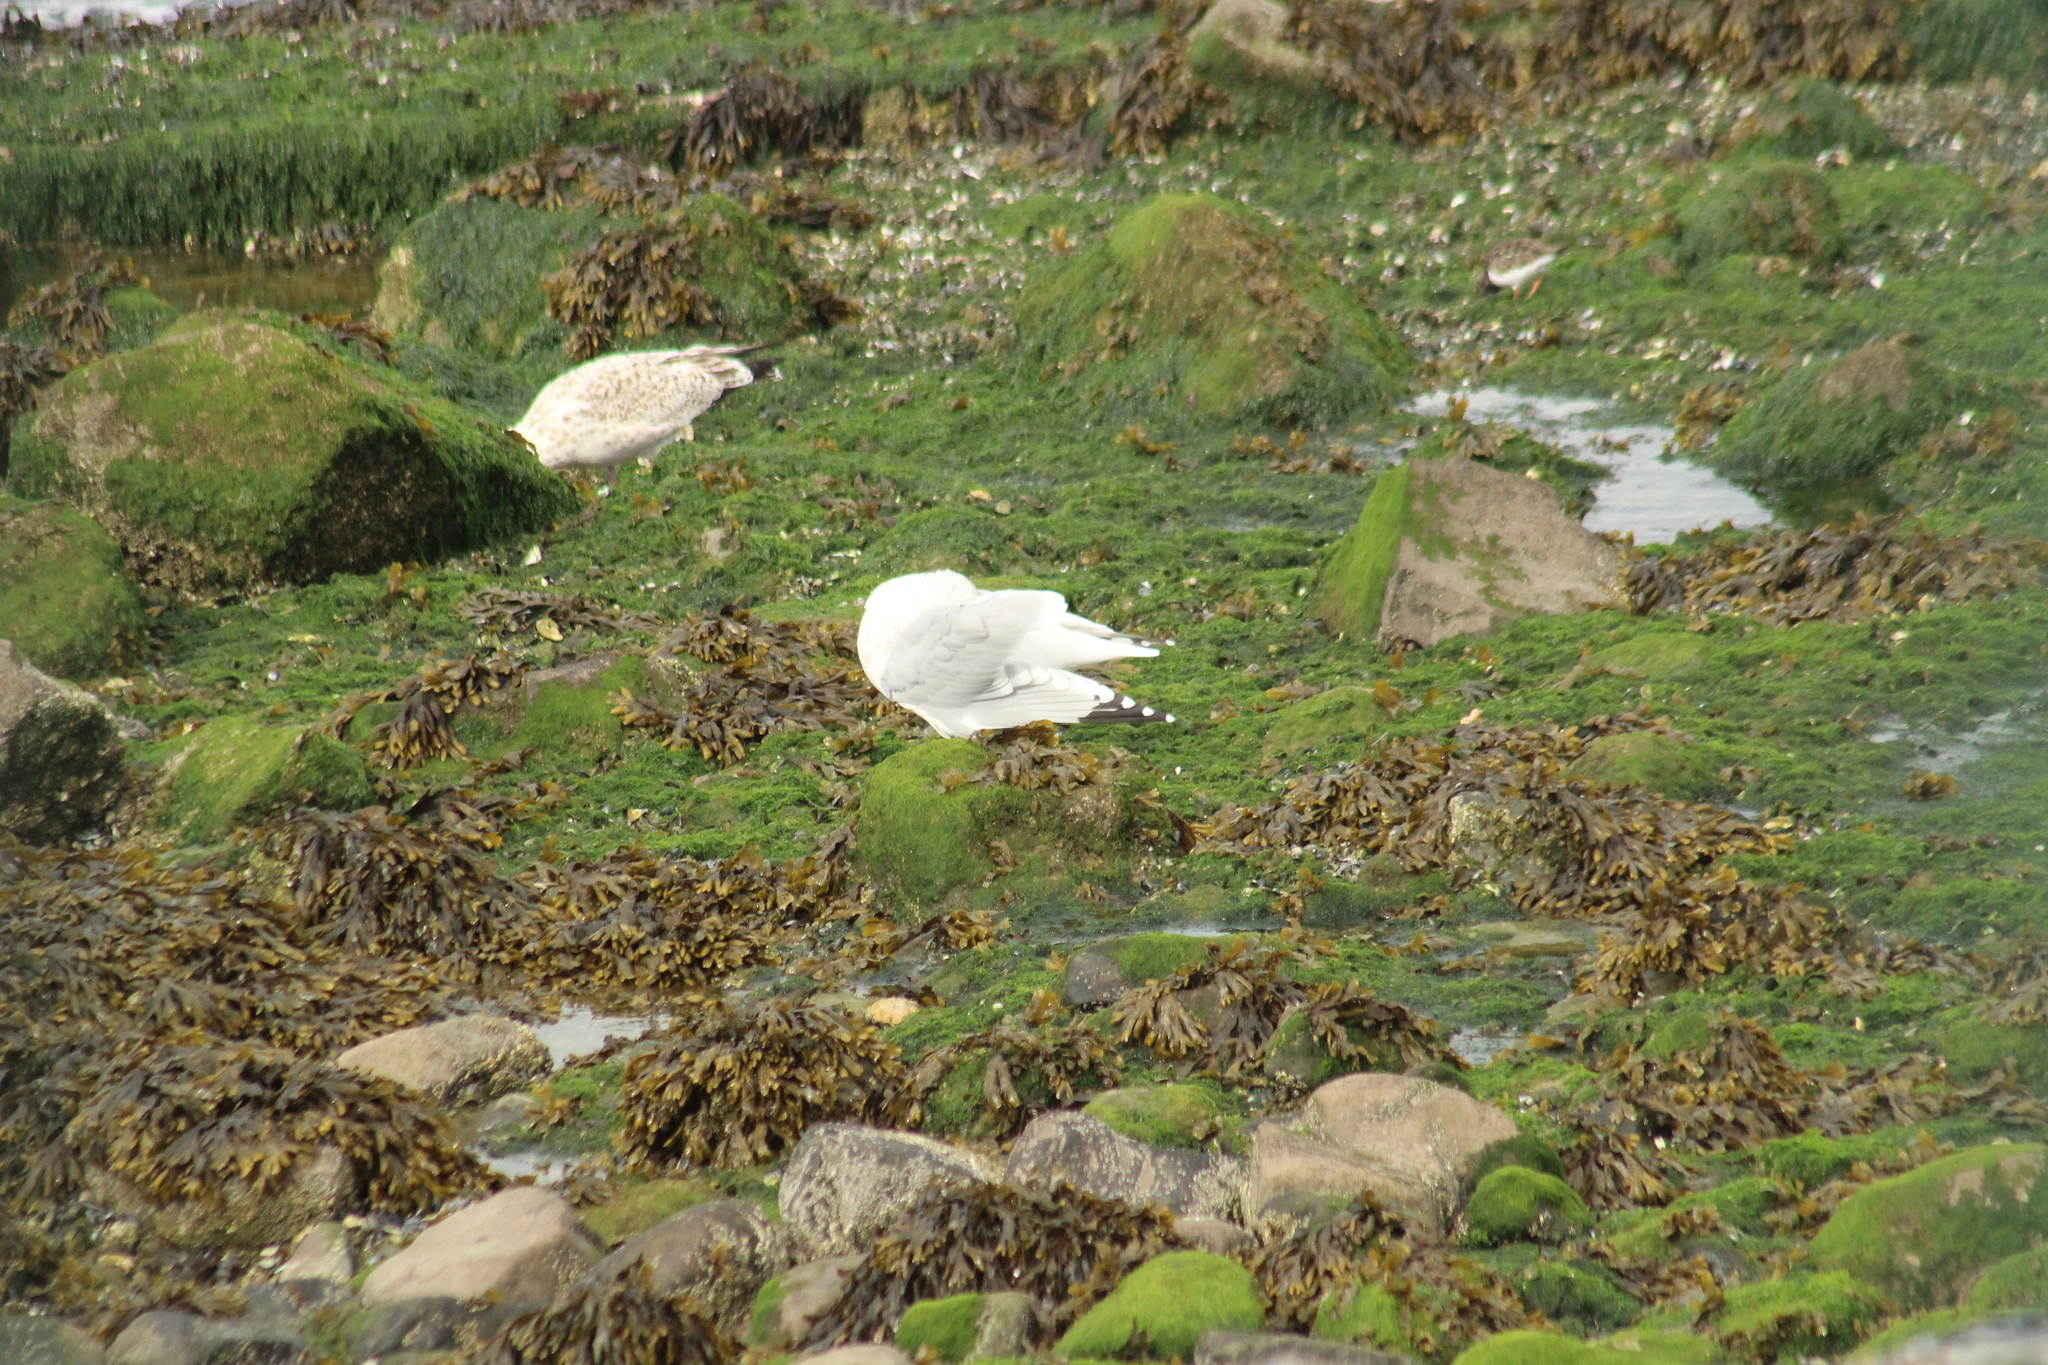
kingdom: Animalia
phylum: Chordata
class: Aves
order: Charadriiformes
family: Laridae
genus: Larus
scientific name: Larus argentatus
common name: Herring gull
